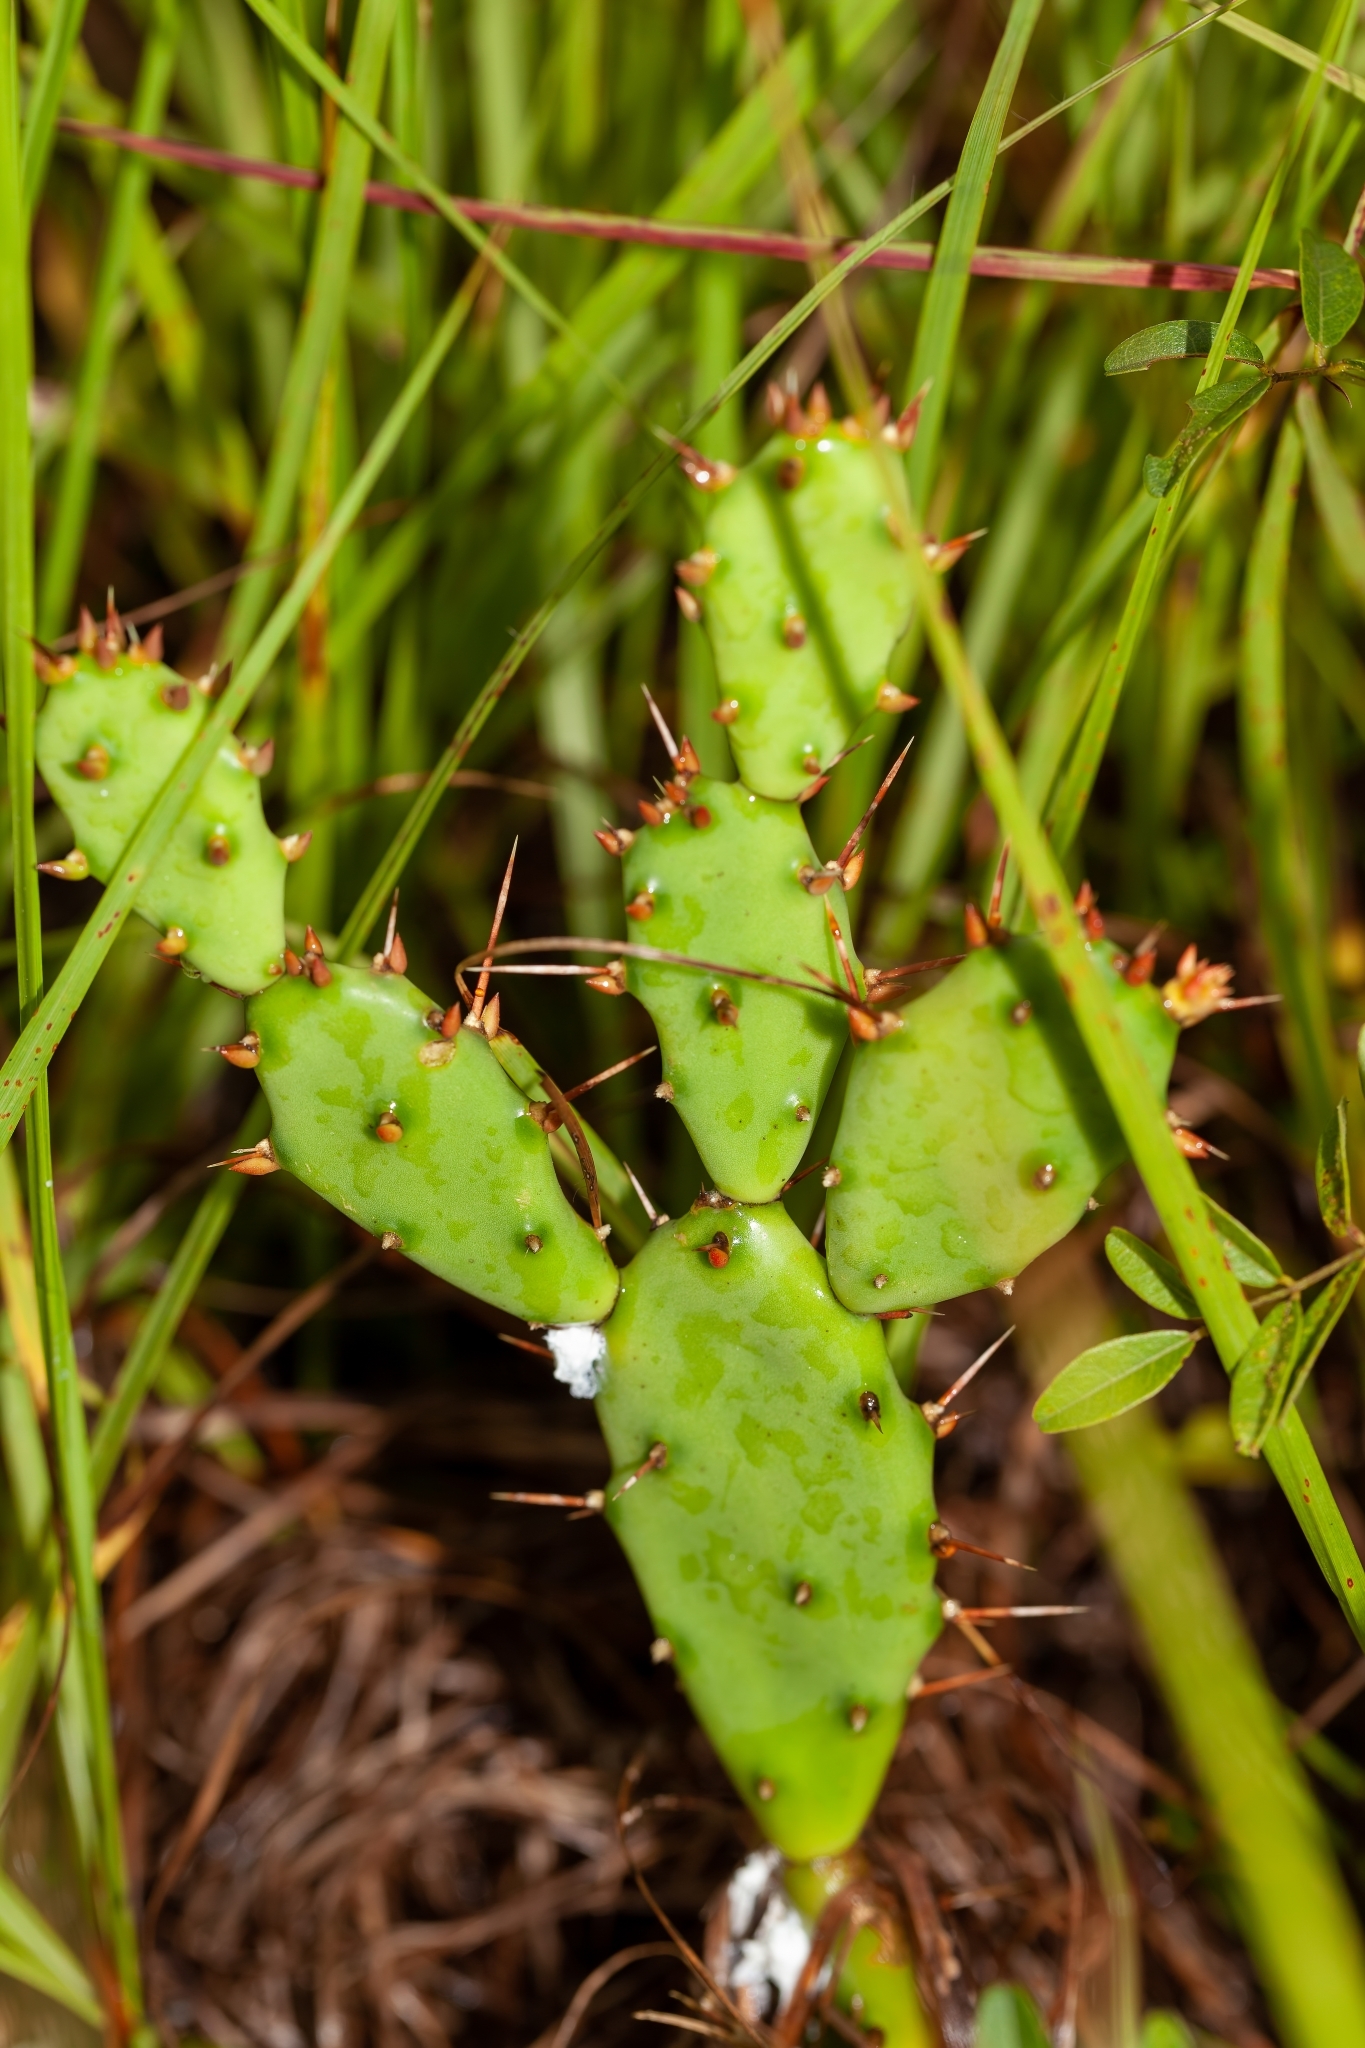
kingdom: Plantae
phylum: Tracheophyta
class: Magnoliopsida
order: Caryophyllales
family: Cactaceae
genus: Opuntia
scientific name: Opuntia austrina
